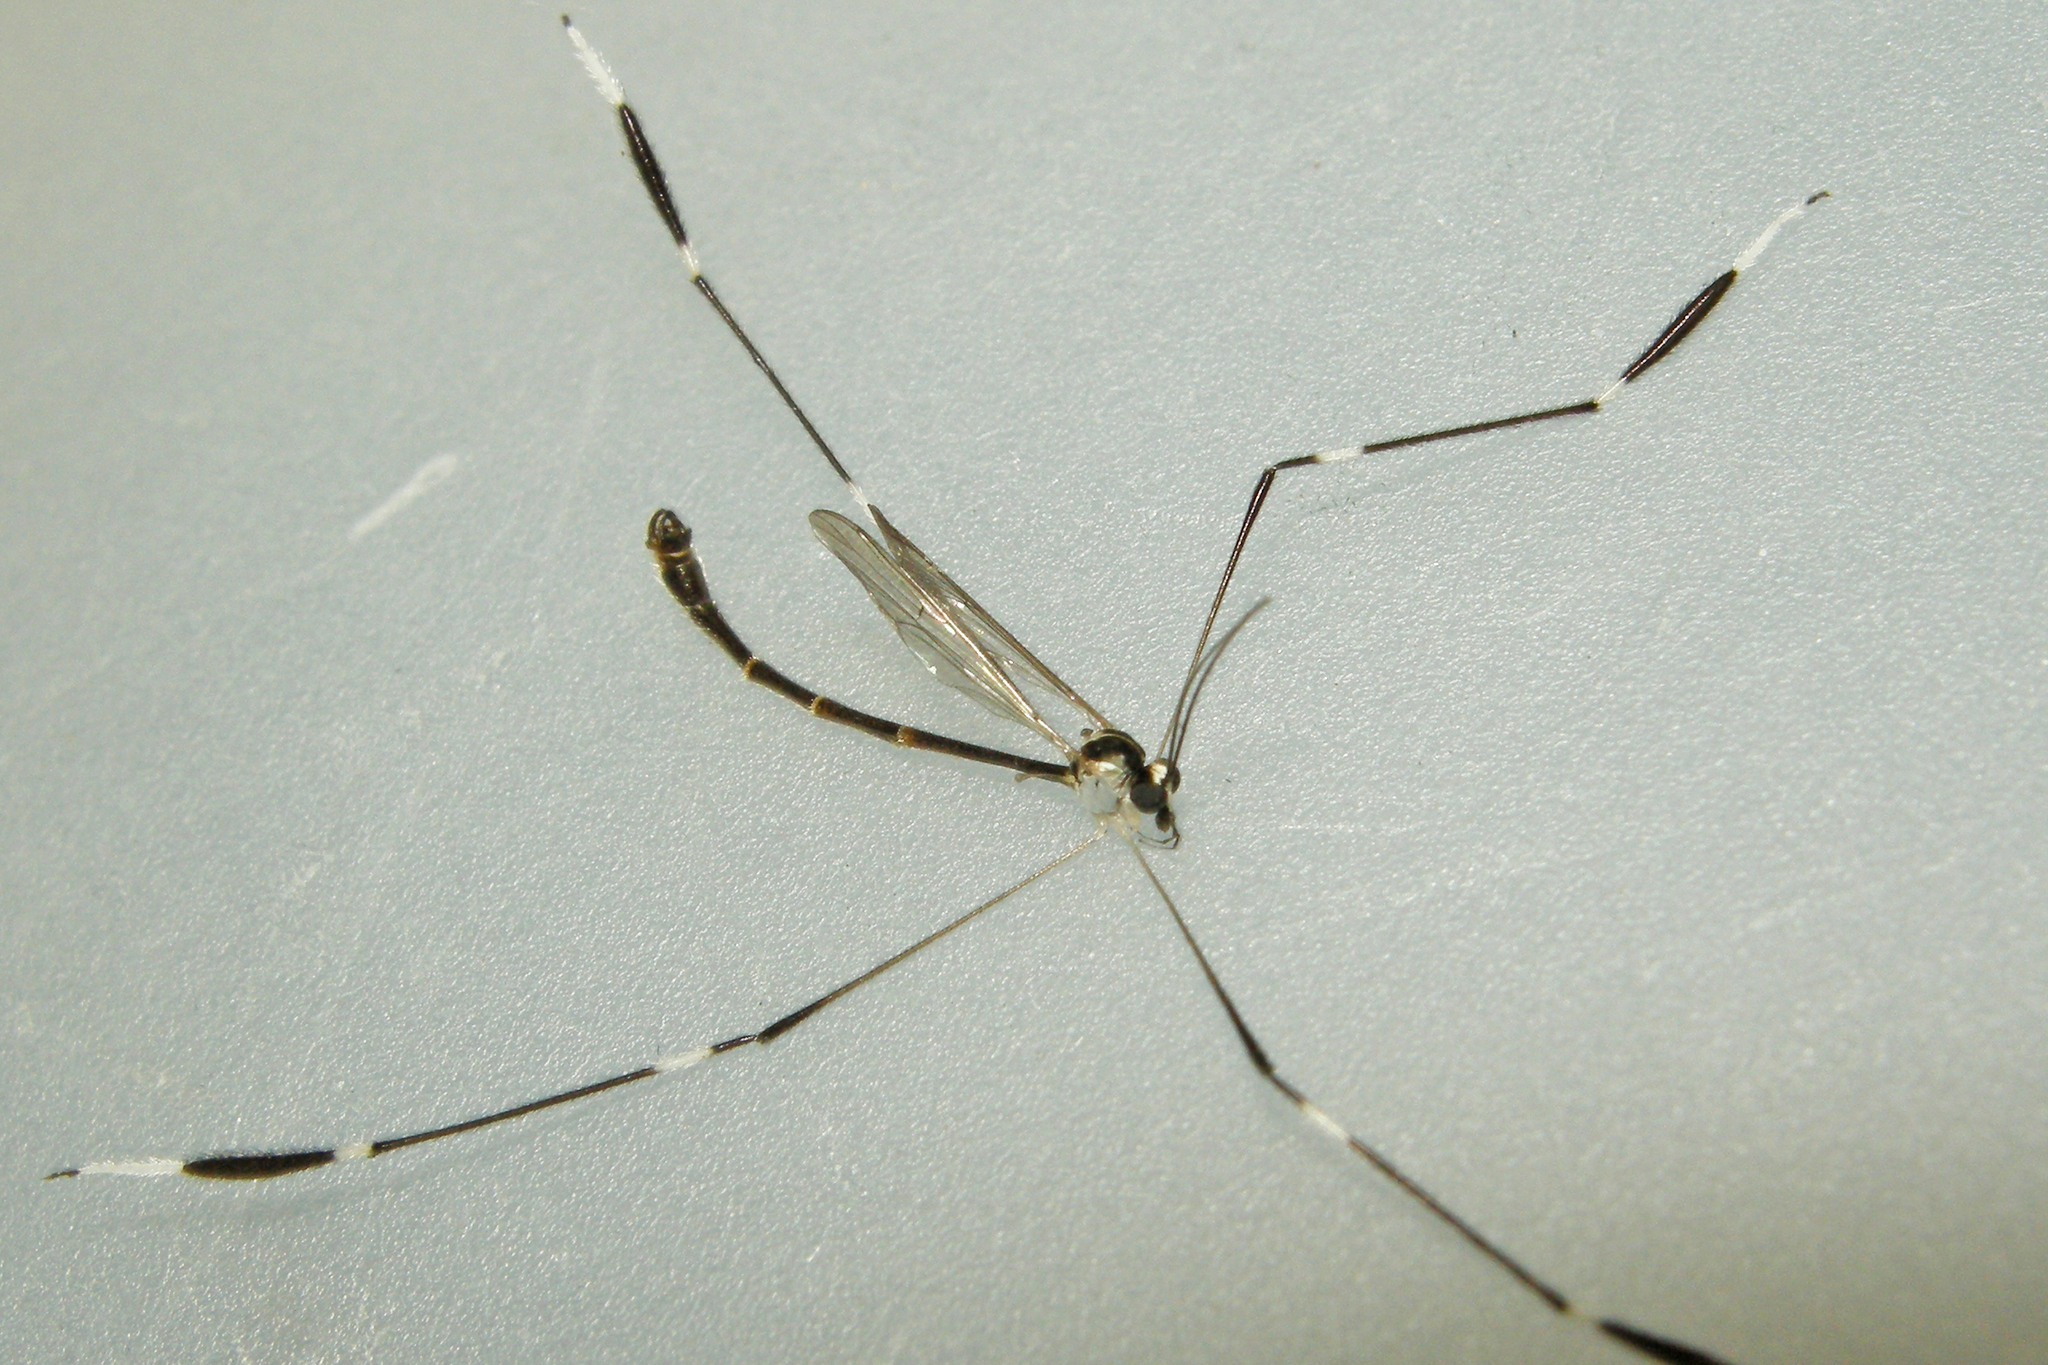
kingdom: Animalia
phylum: Arthropoda
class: Insecta
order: Diptera
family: Ptychopteridae
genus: Bittacomorpha
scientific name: Bittacomorpha clavipes
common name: Eastern phantom crane fly
